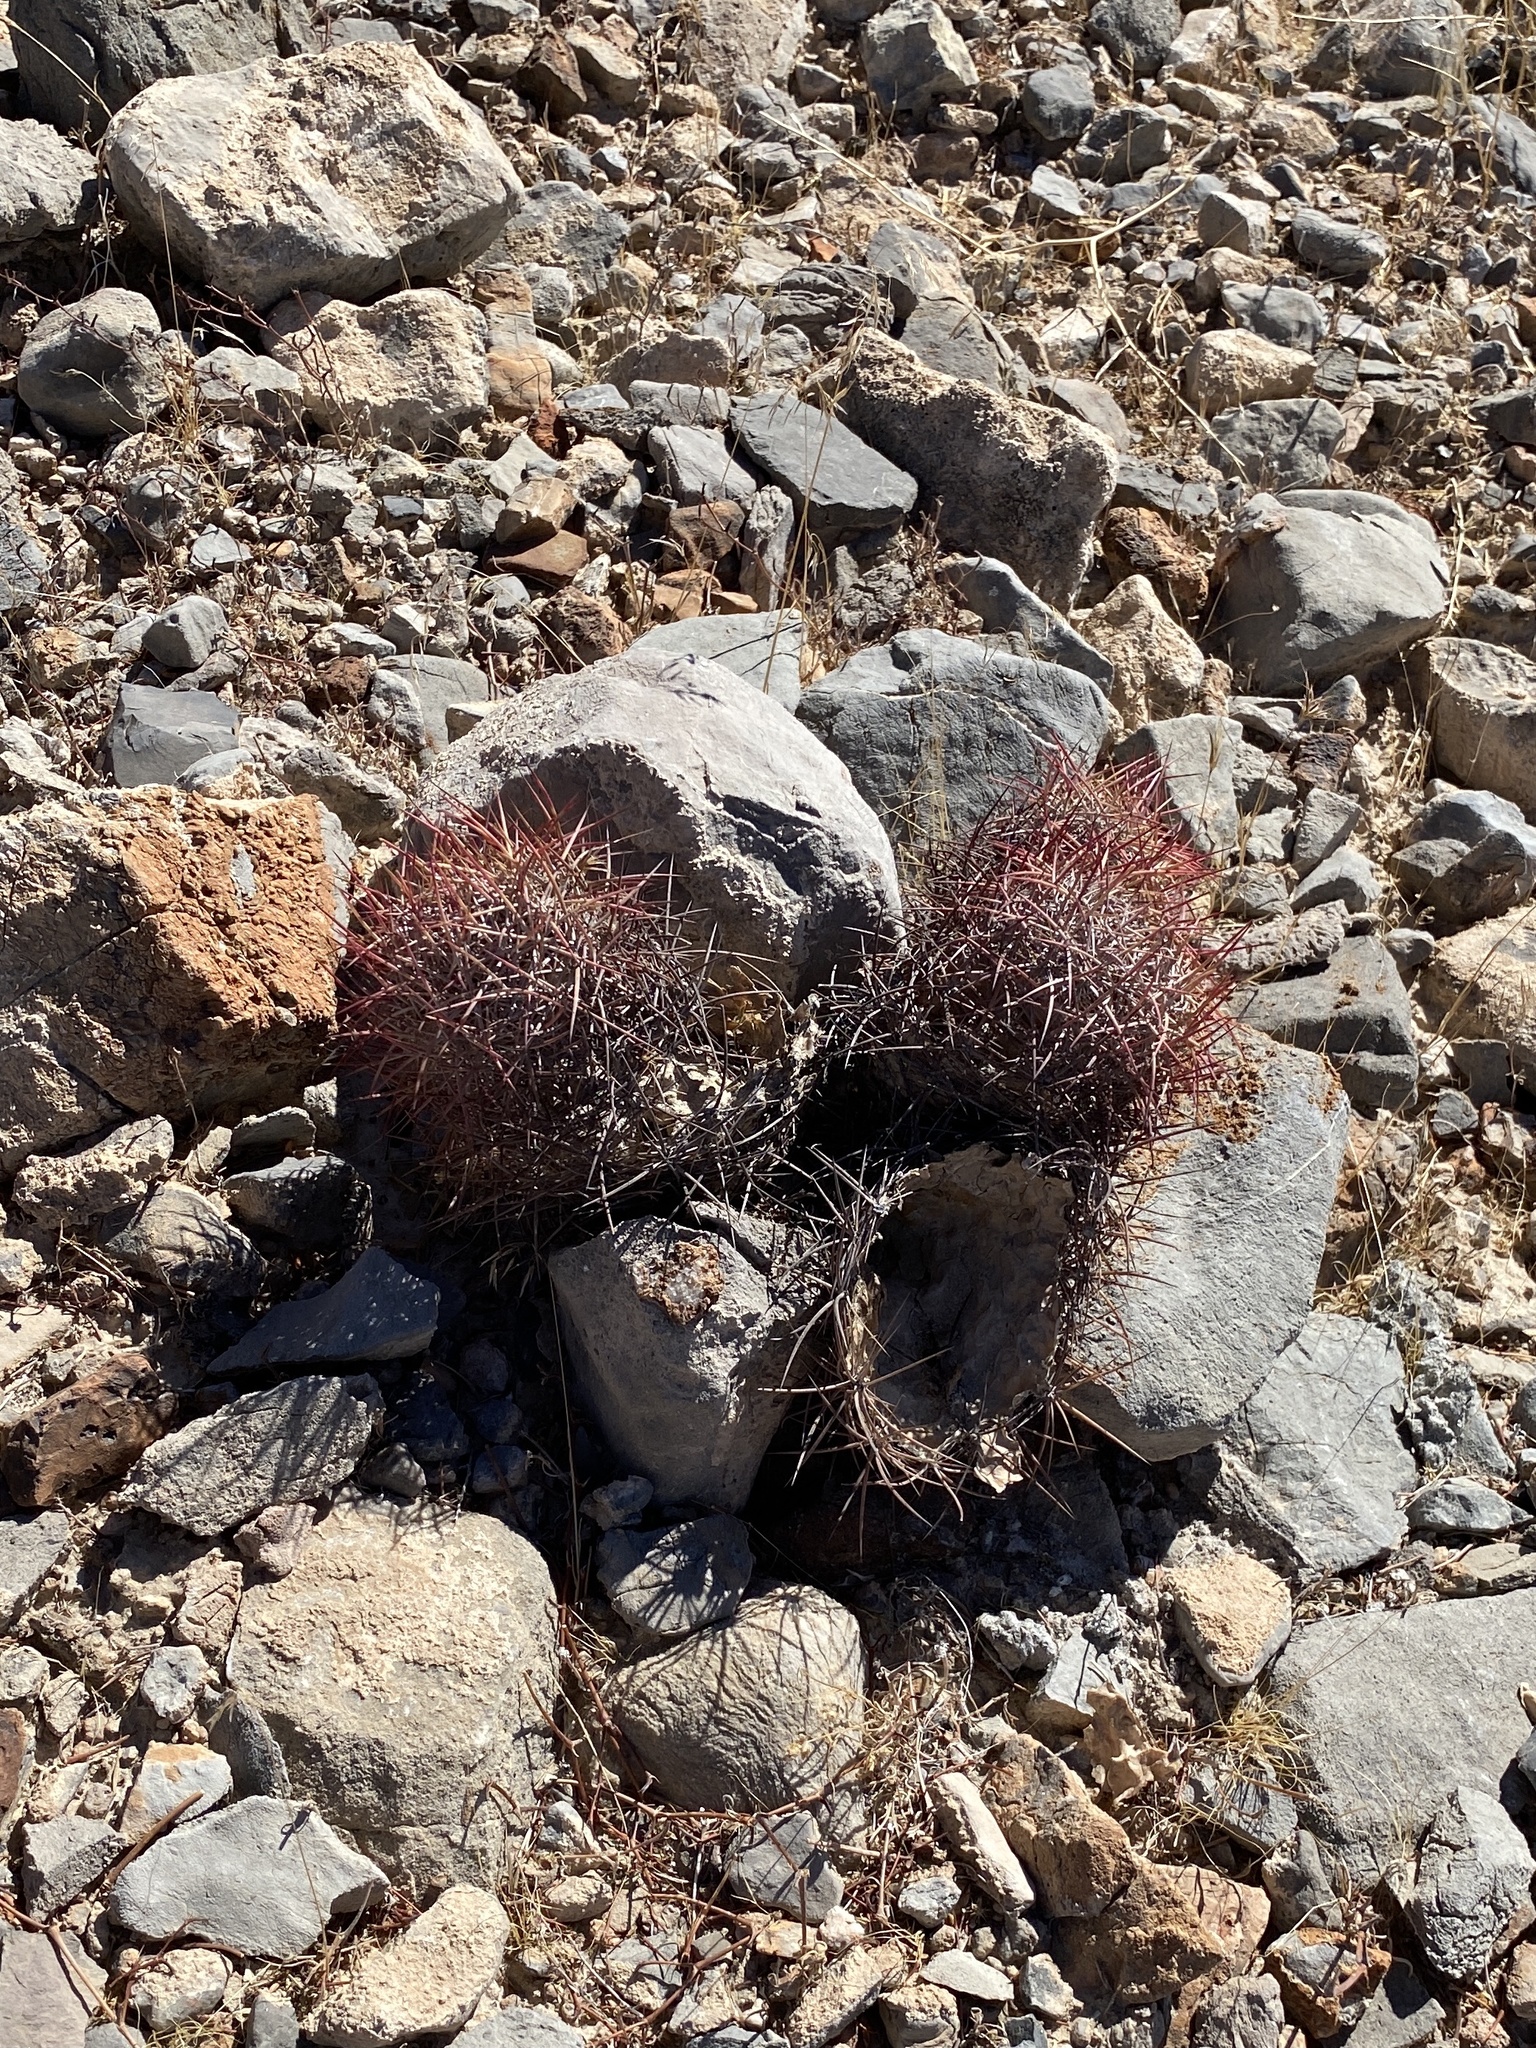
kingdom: Plantae
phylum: Tracheophyta
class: Magnoliopsida
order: Caryophyllales
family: Cactaceae
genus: Sclerocactus
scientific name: Sclerocactus johnsonii
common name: Eight-spine fishhook cactus
